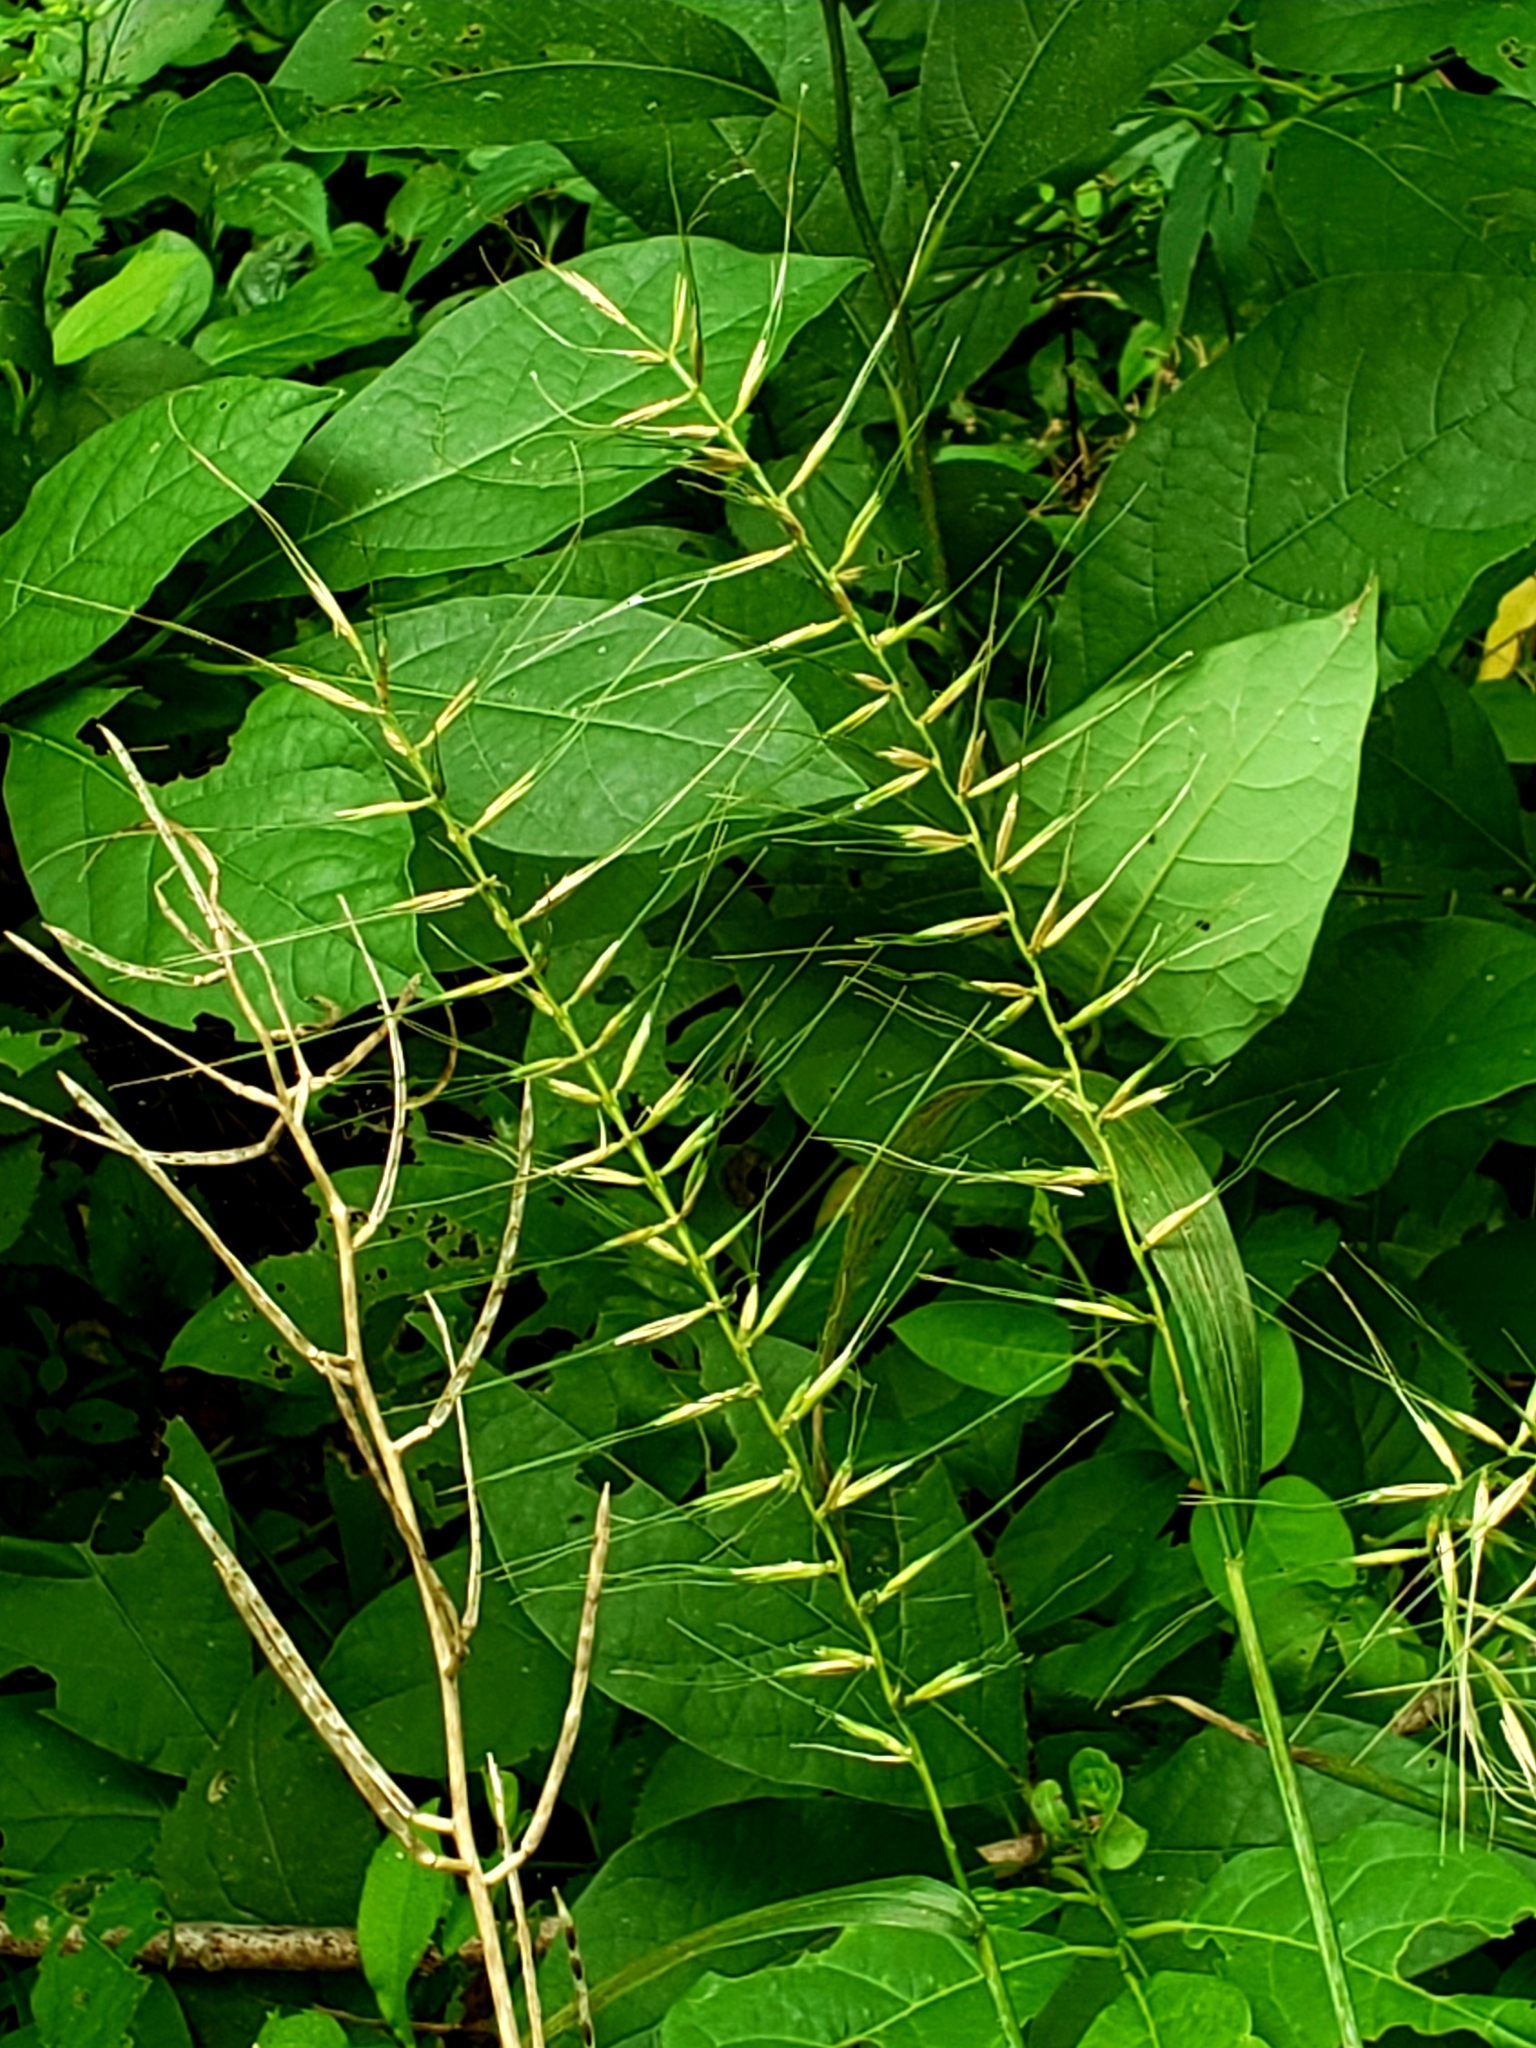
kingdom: Plantae
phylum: Tracheophyta
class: Liliopsida
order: Poales
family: Poaceae
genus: Elymus
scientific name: Elymus hystrix
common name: Bottlebrush grass
